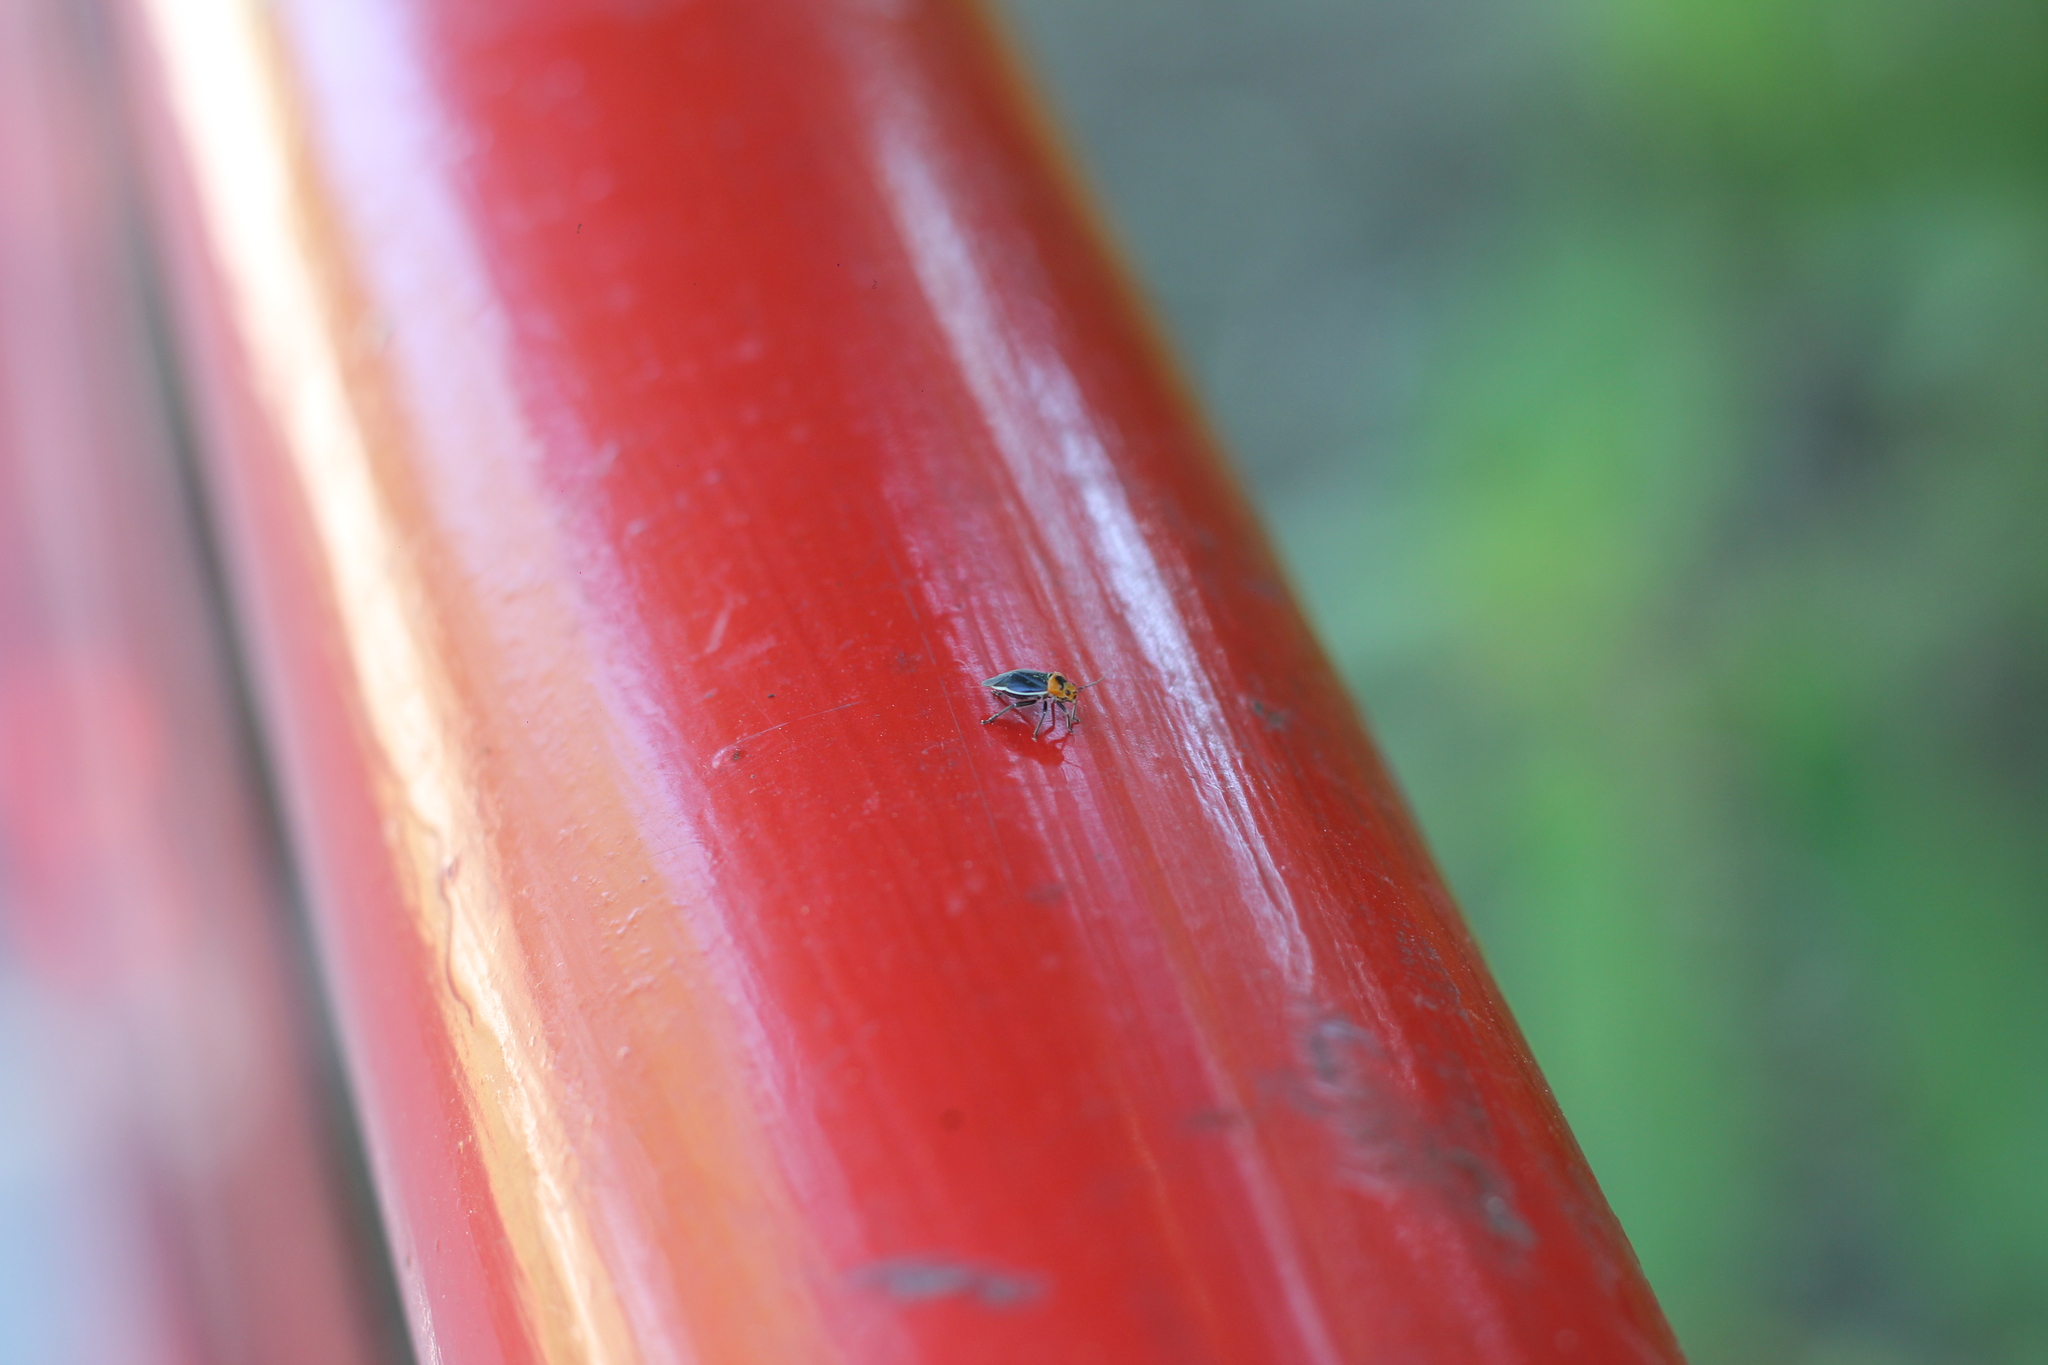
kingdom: Animalia
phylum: Arthropoda
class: Insecta
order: Hemiptera
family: Miridae
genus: Aspidobothrys
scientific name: Aspidobothrys ruficeps
